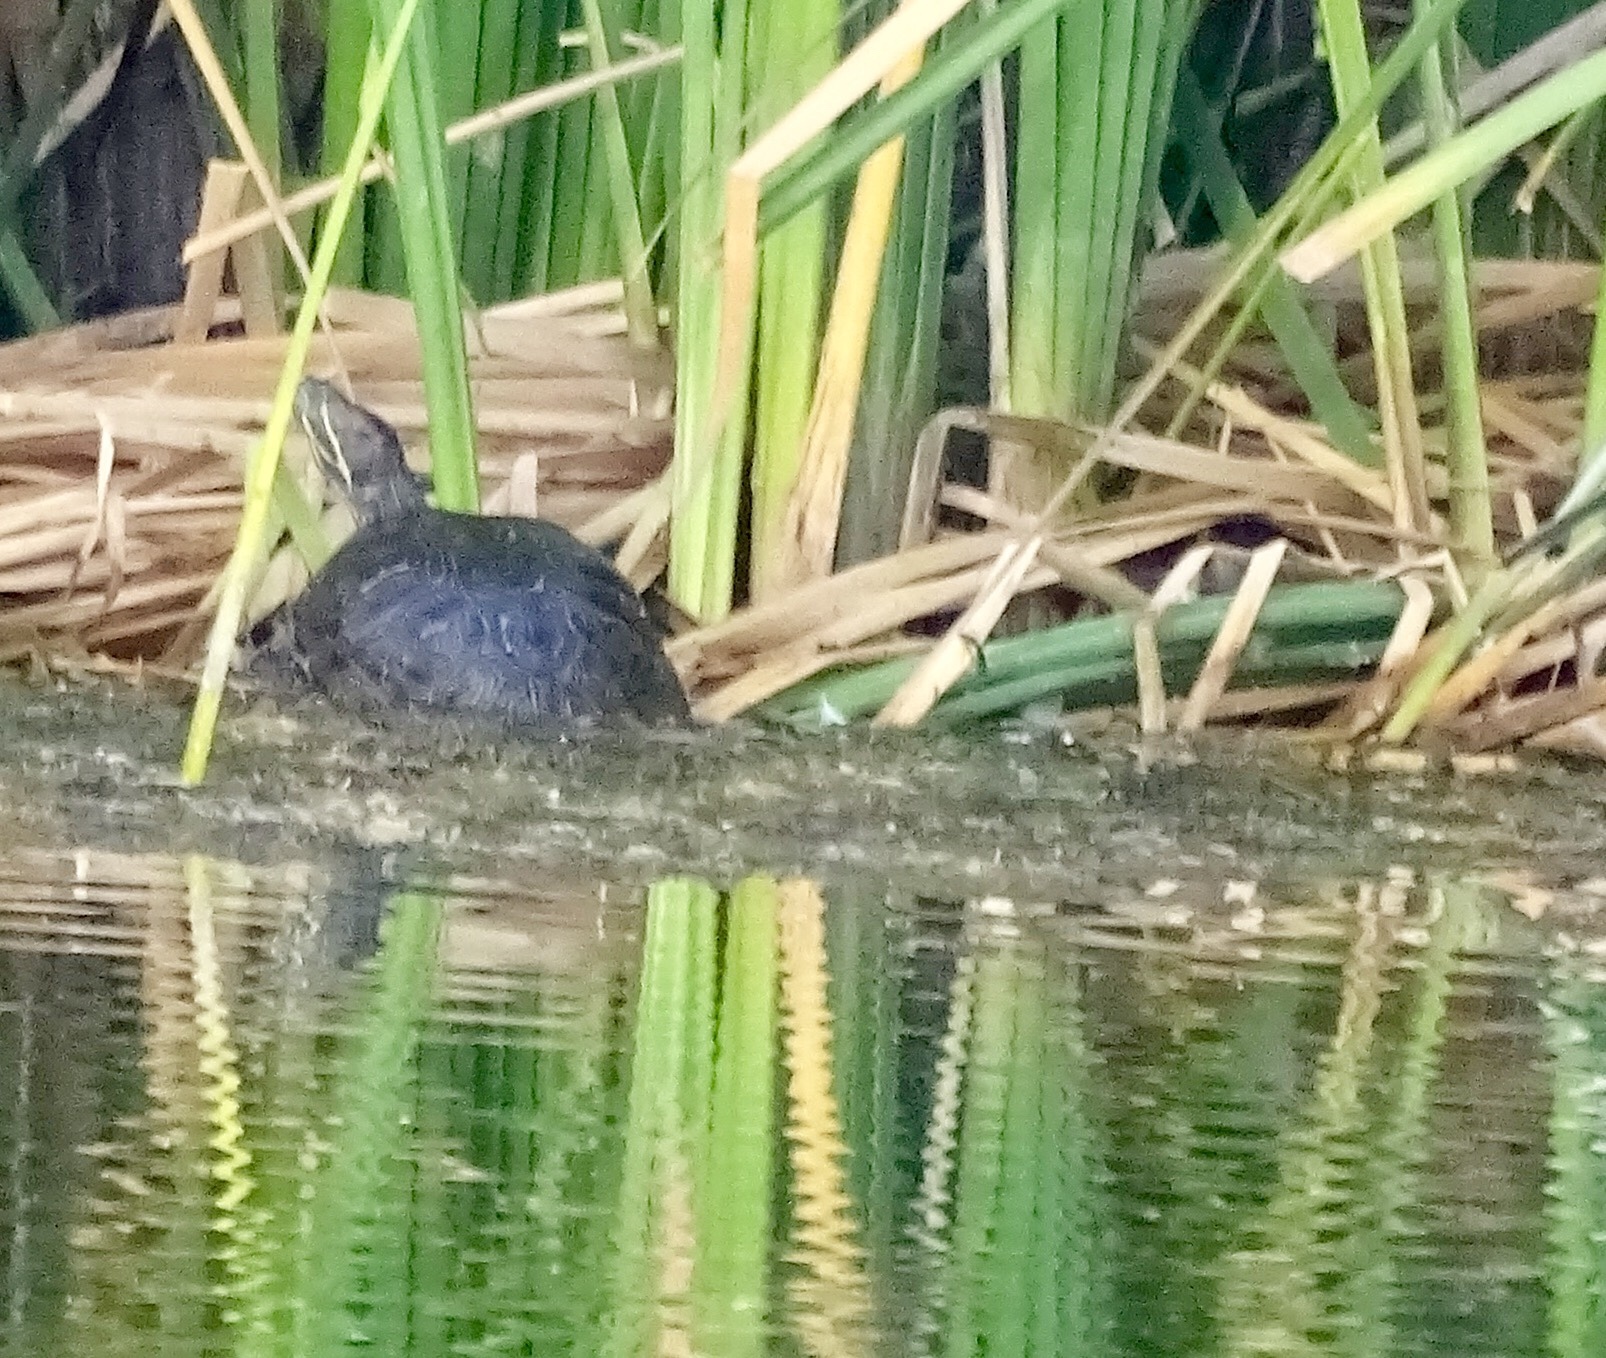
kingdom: Animalia
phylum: Chordata
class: Testudines
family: Emydidae
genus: Trachemys
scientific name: Trachemys scripta
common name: Slider
